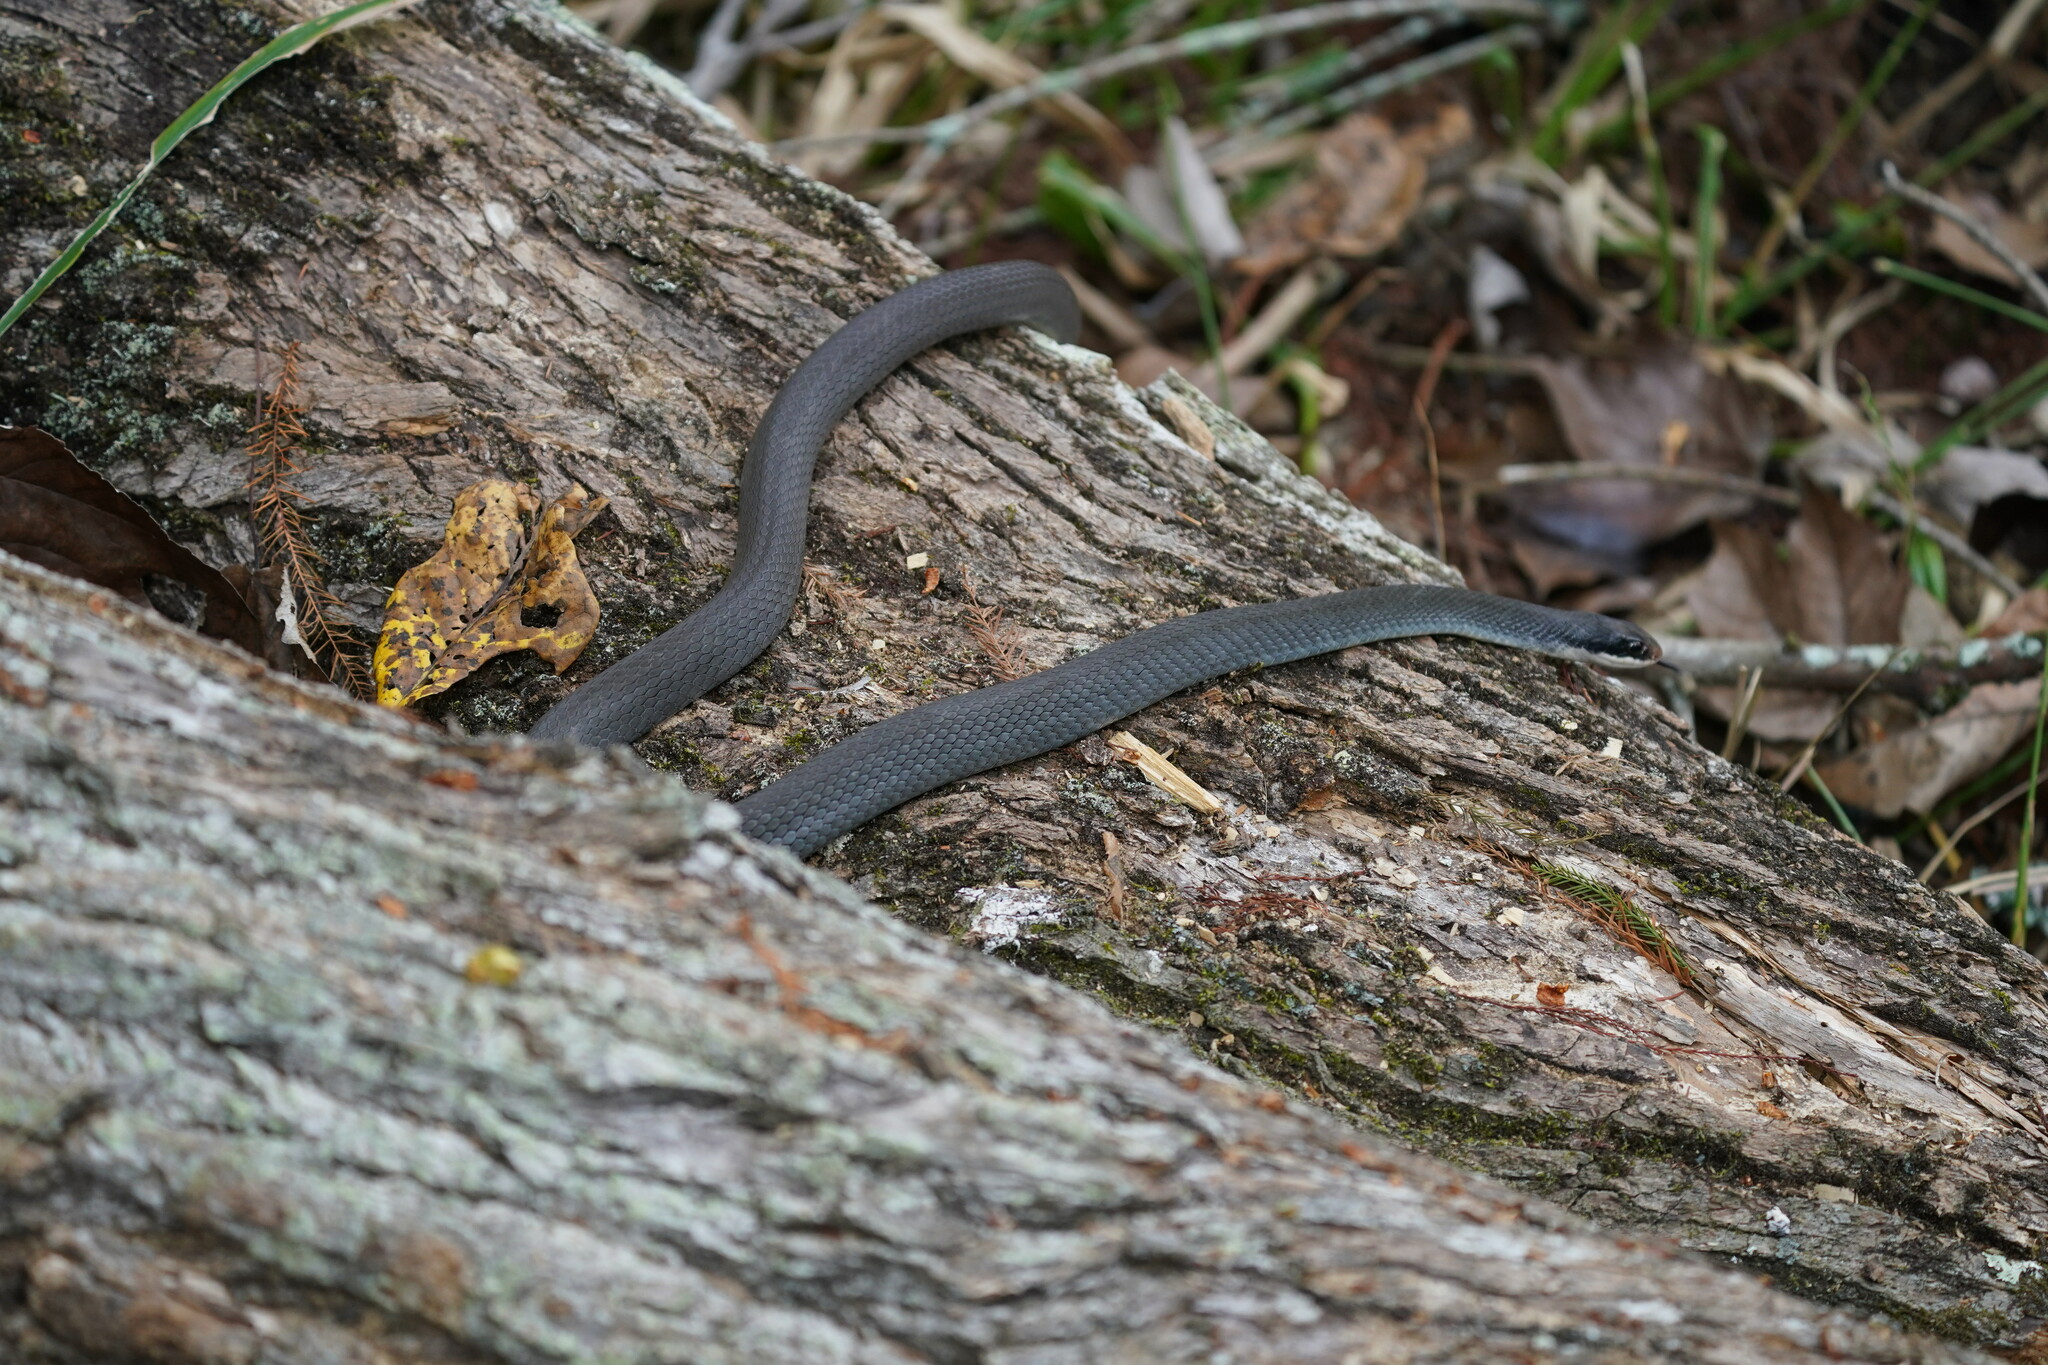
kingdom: Animalia
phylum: Chordata
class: Squamata
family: Colubridae
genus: Coluber
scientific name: Coluber constrictor
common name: Eastern racer
